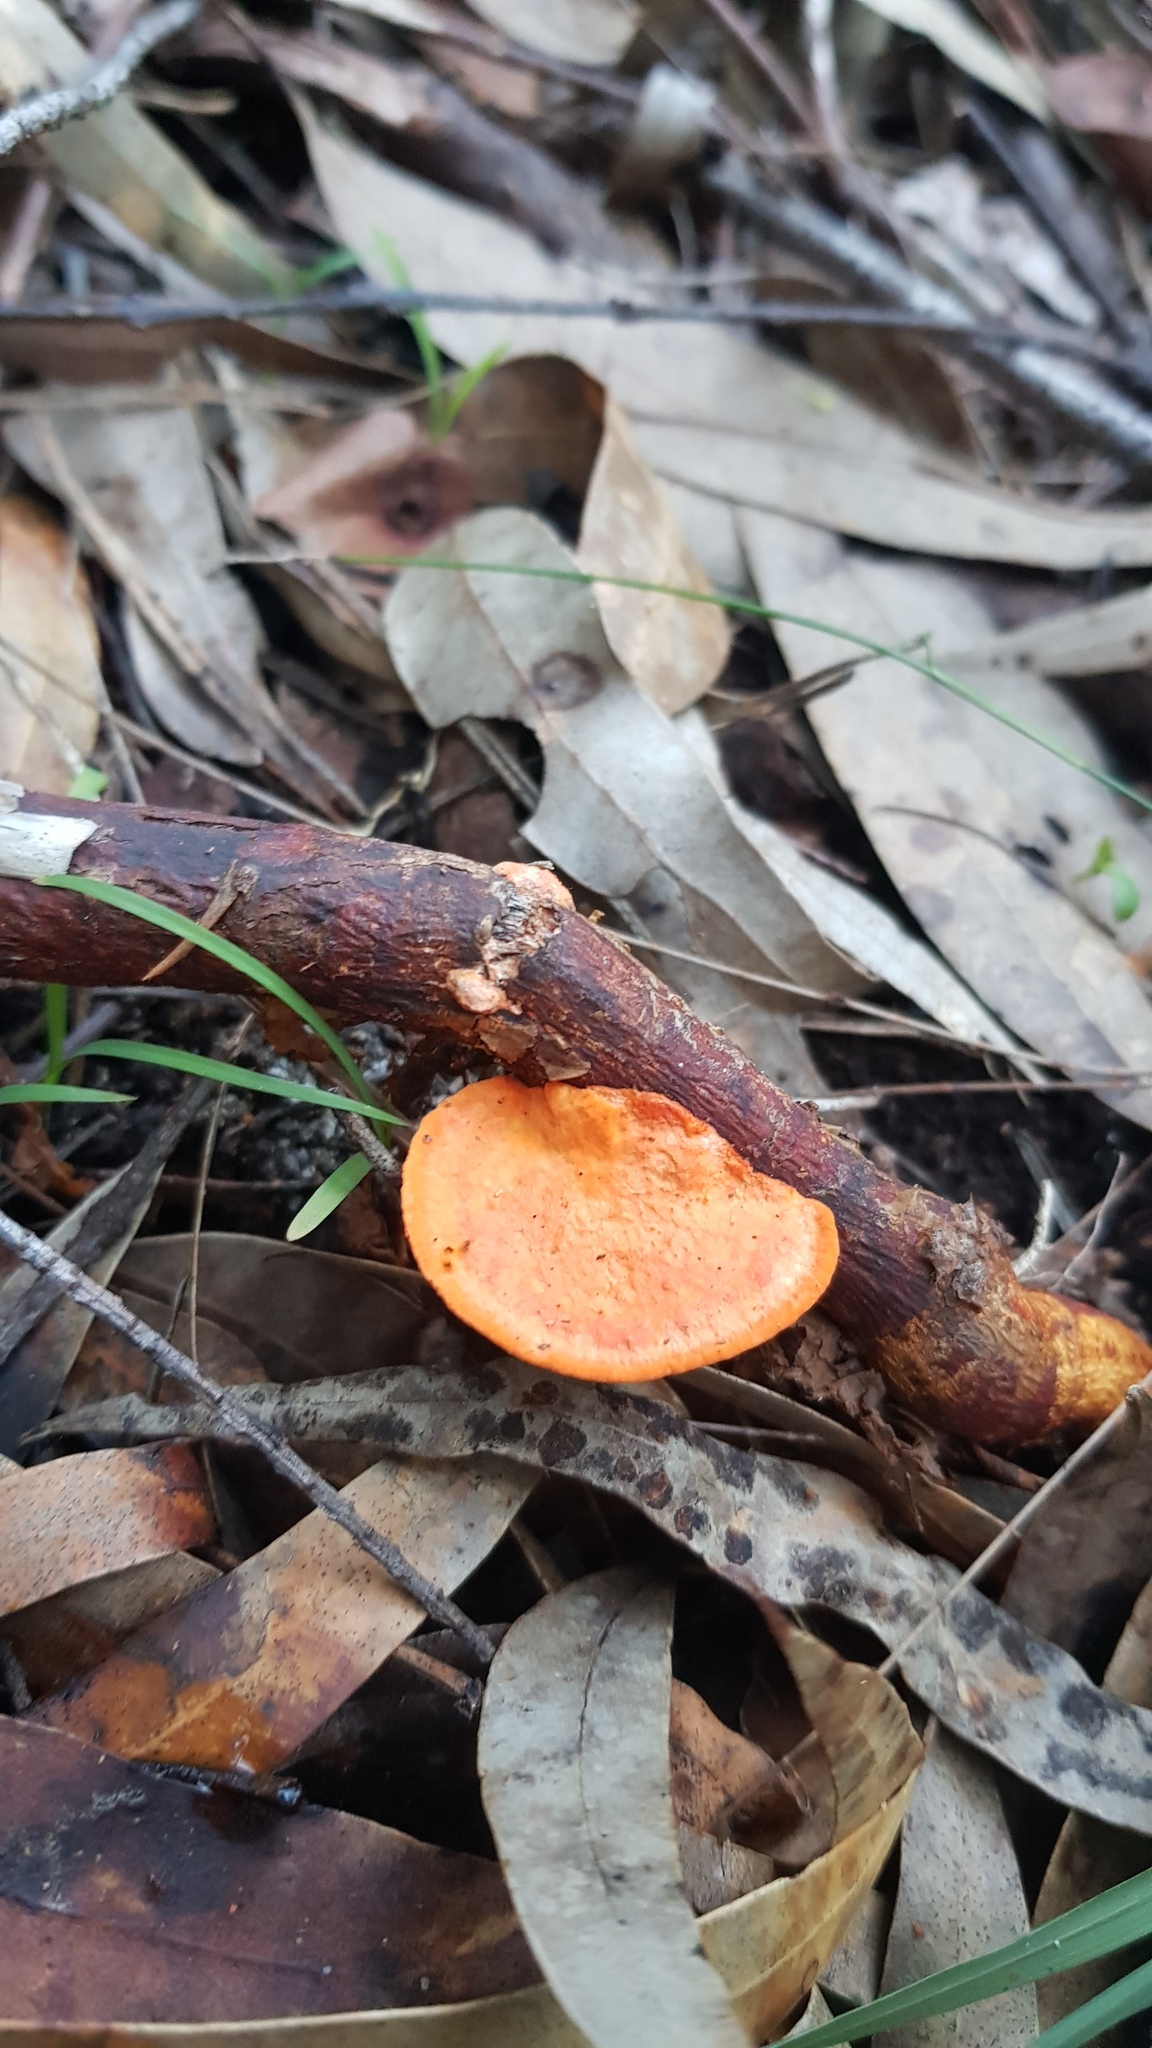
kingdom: Fungi
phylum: Basidiomycota
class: Agaricomycetes
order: Polyporales
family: Polyporaceae
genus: Trametes
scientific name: Trametes coccinea
